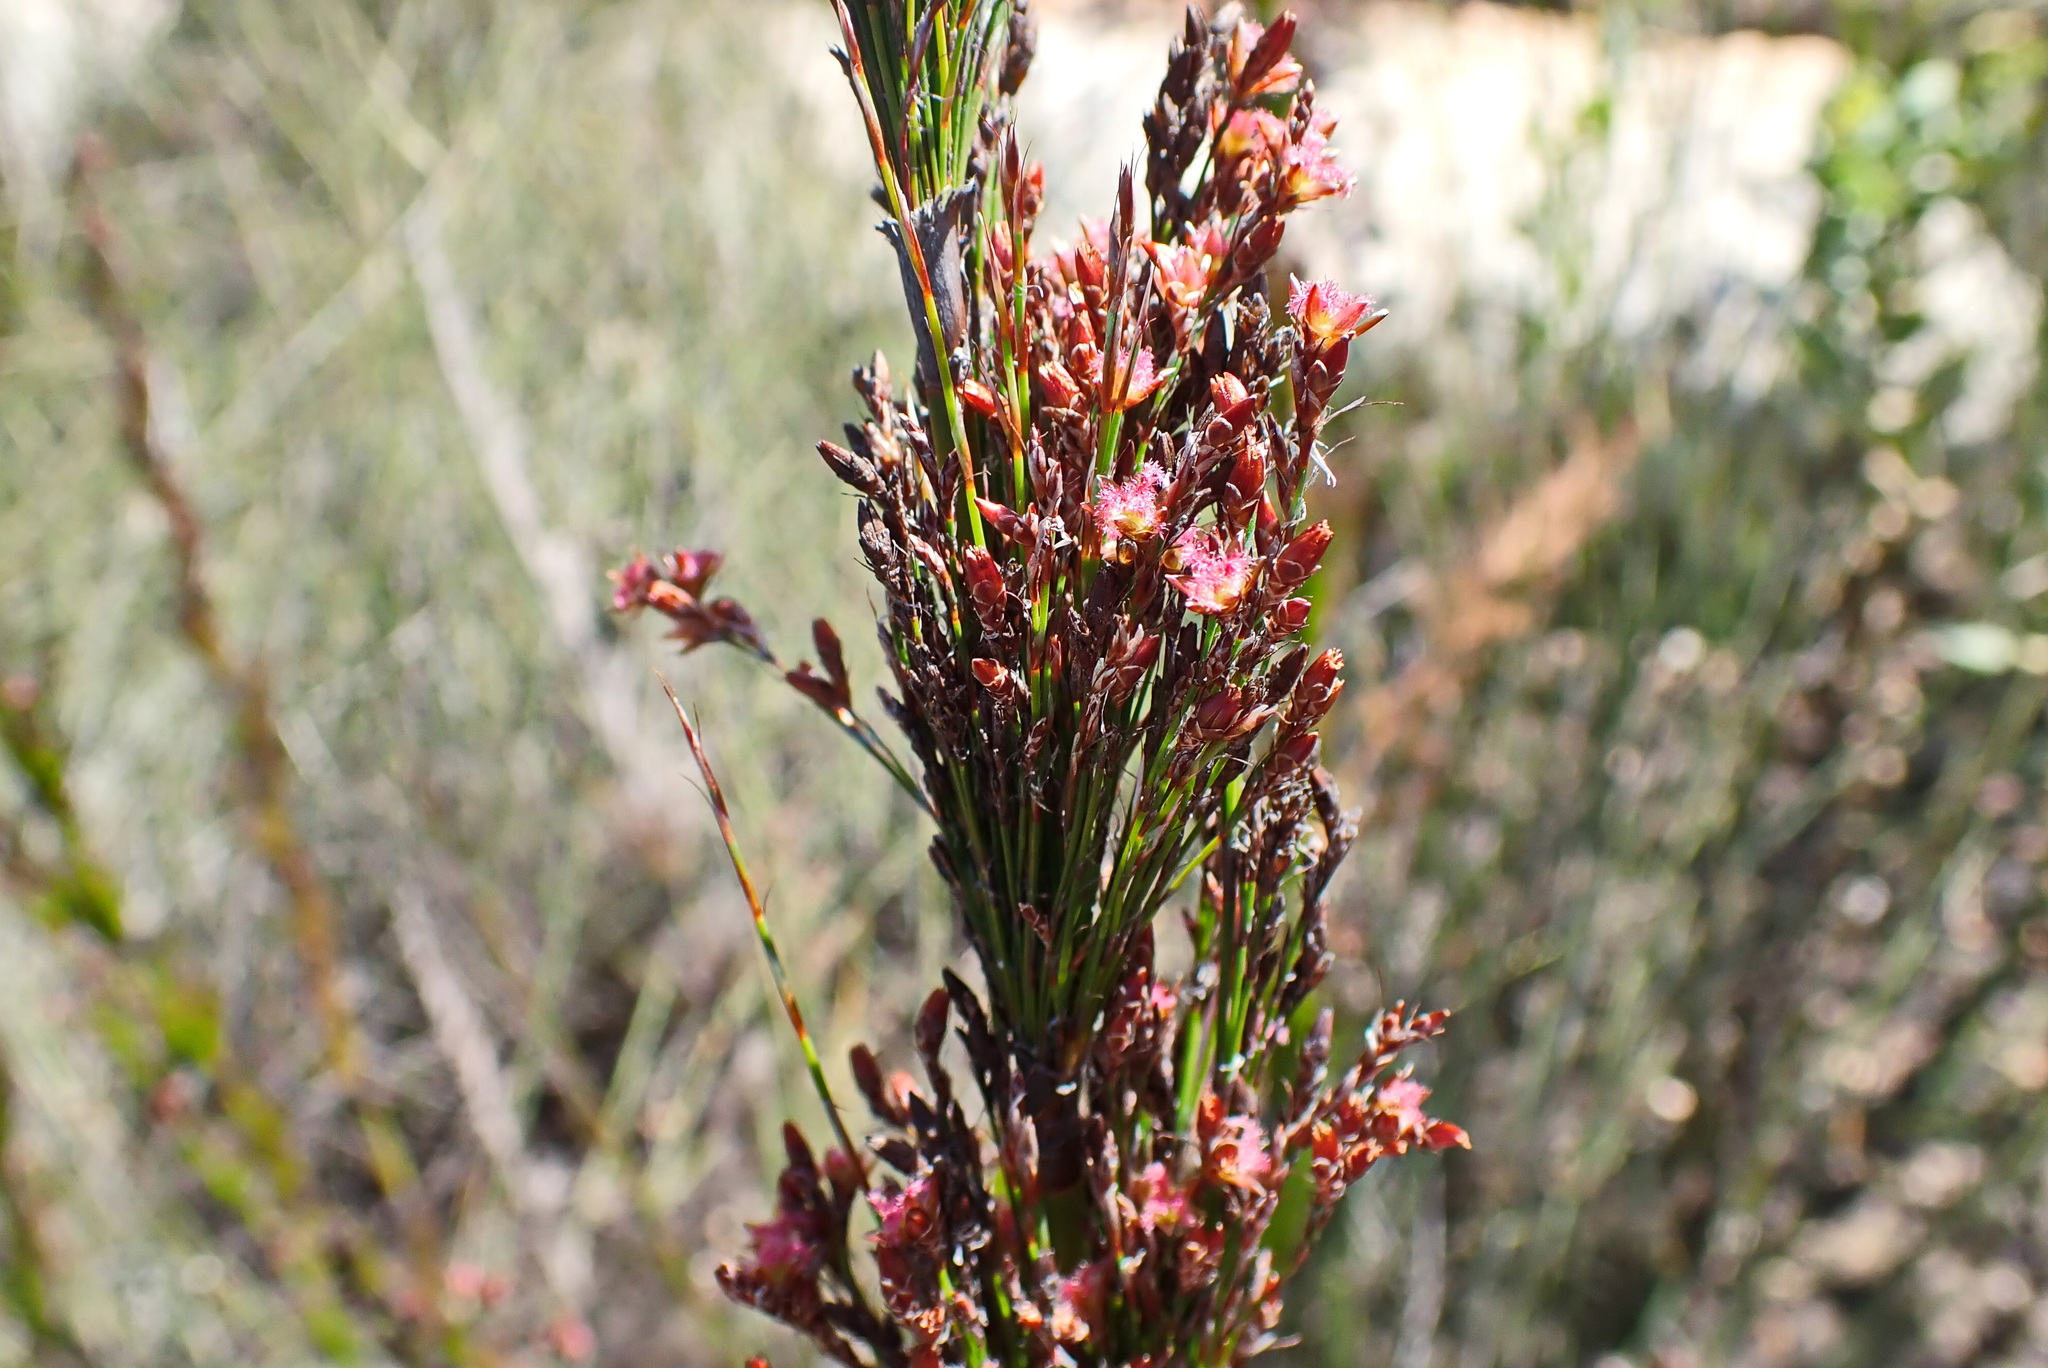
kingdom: Plantae
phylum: Tracheophyta
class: Liliopsida
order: Poales
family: Restionaceae
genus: Rhodocoma
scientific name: Rhodocoma capensis
